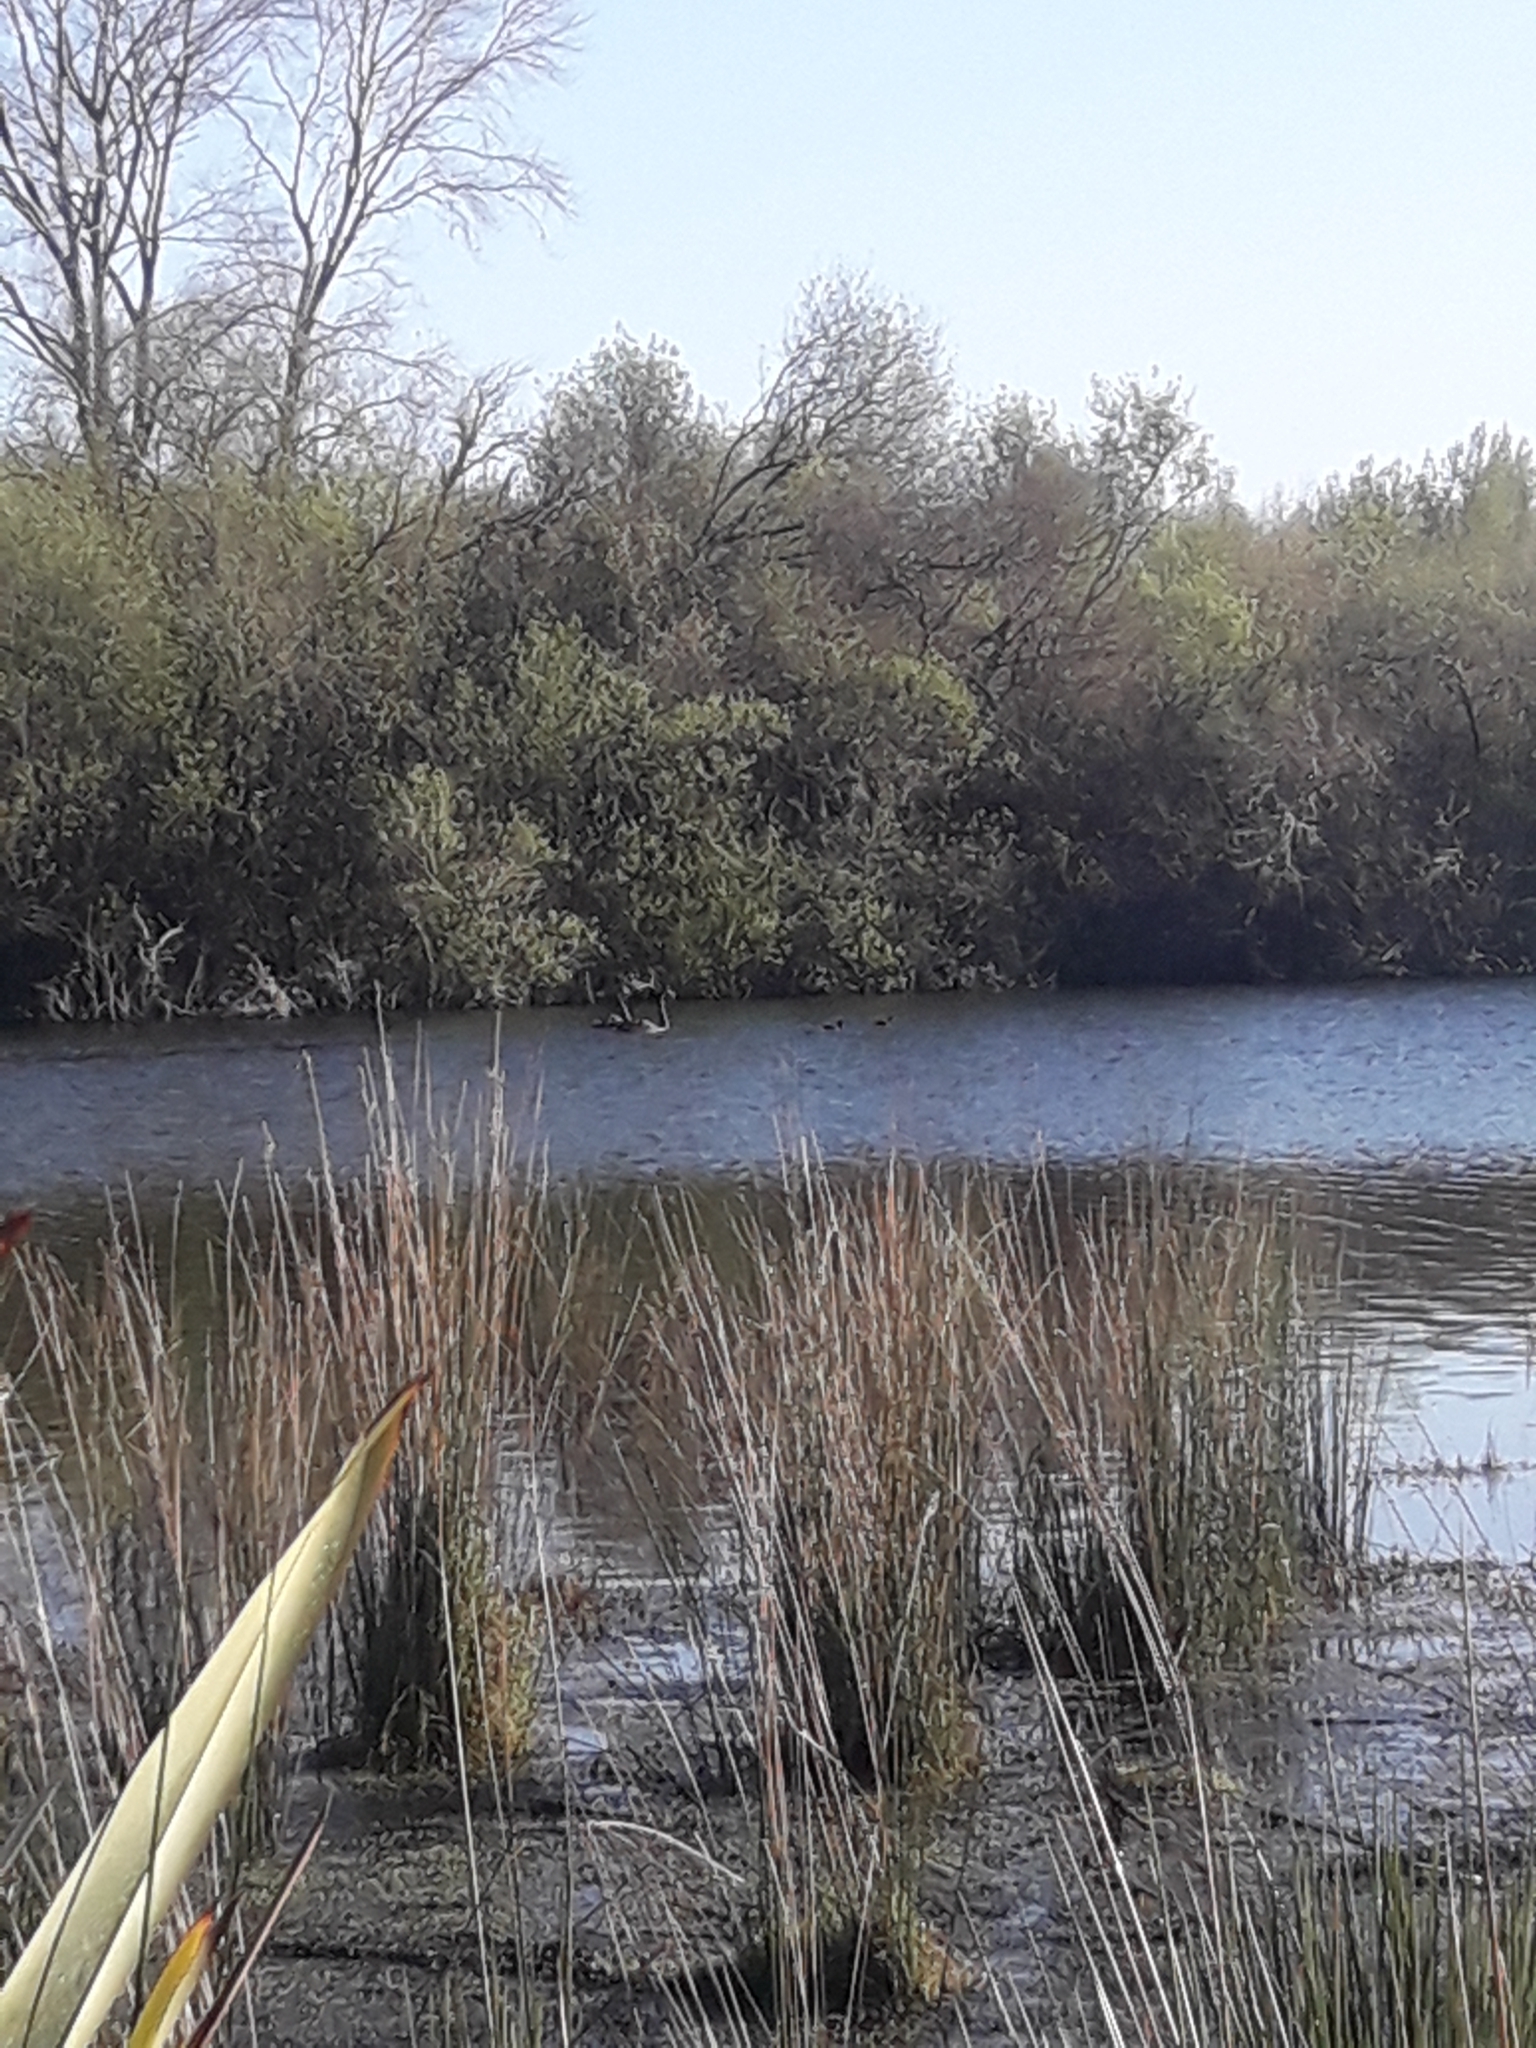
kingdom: Animalia
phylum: Chordata
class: Aves
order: Anseriformes
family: Anatidae
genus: Cygnus
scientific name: Cygnus atratus
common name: Black swan
